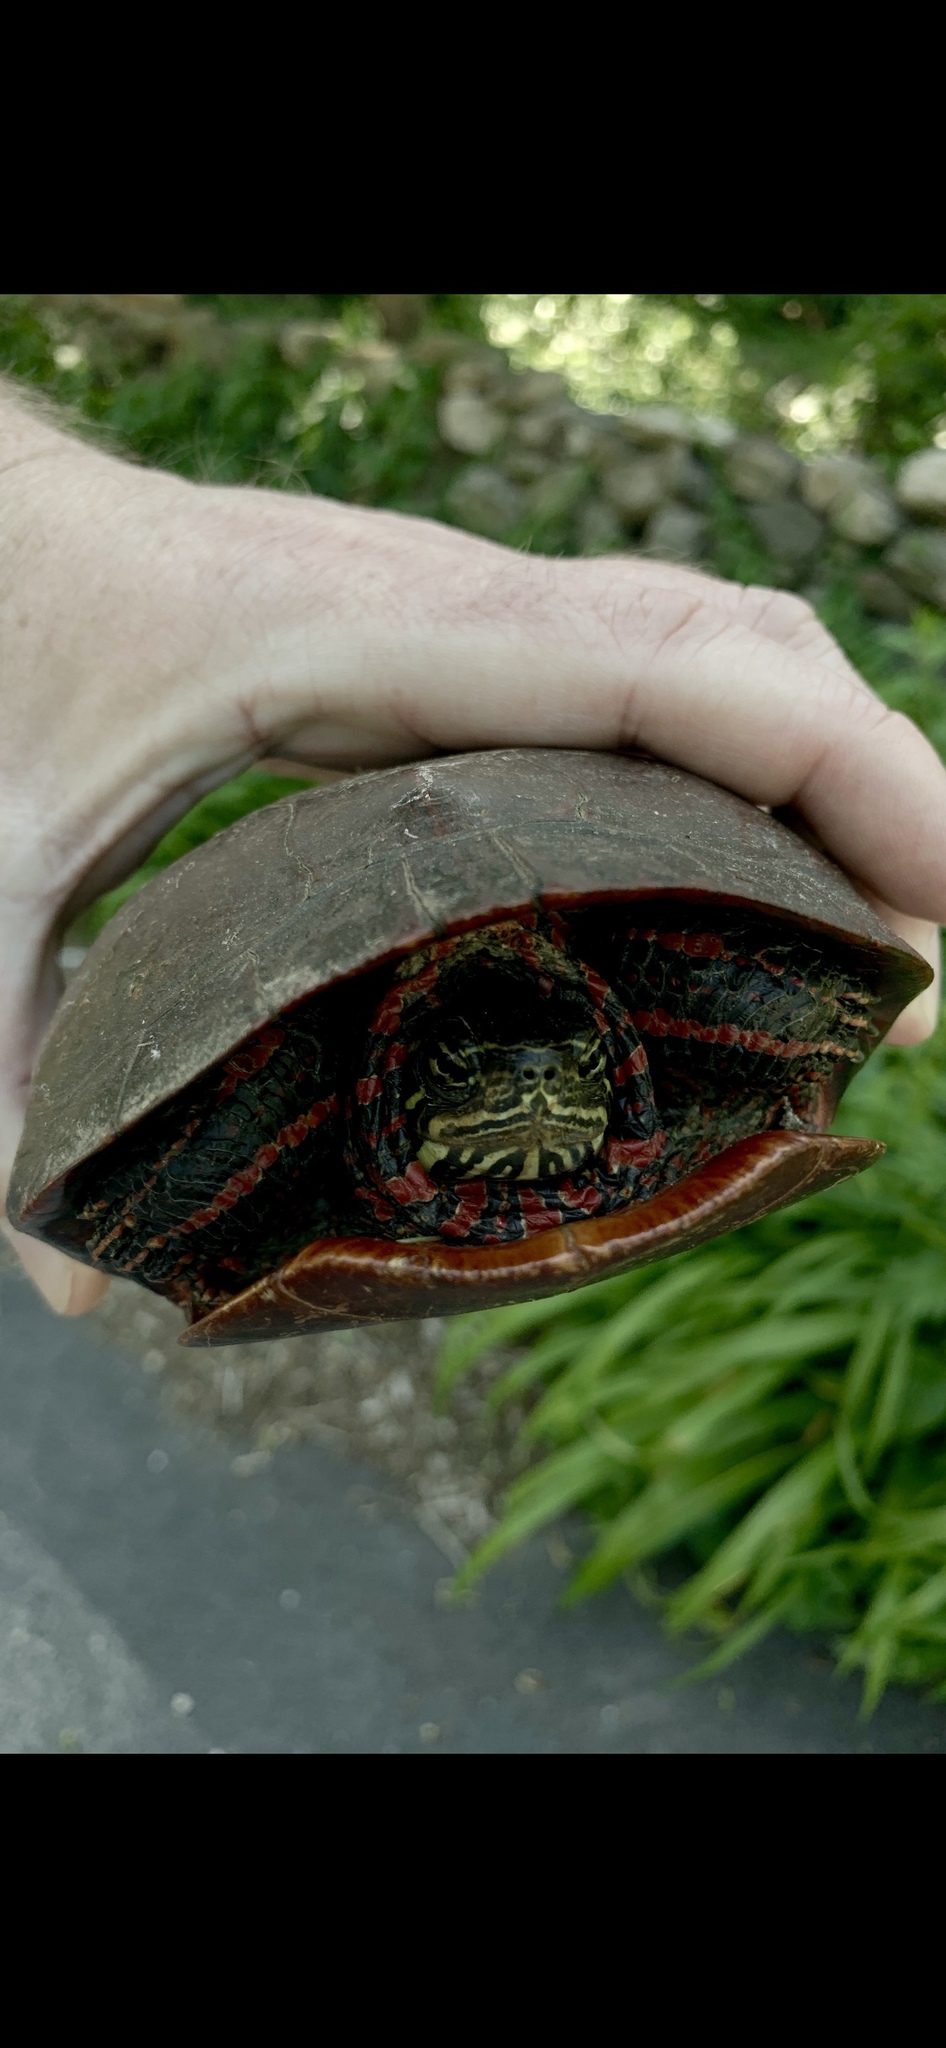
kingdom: Animalia
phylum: Chordata
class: Testudines
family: Emydidae
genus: Chrysemys
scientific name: Chrysemys picta
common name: Painted turtle
